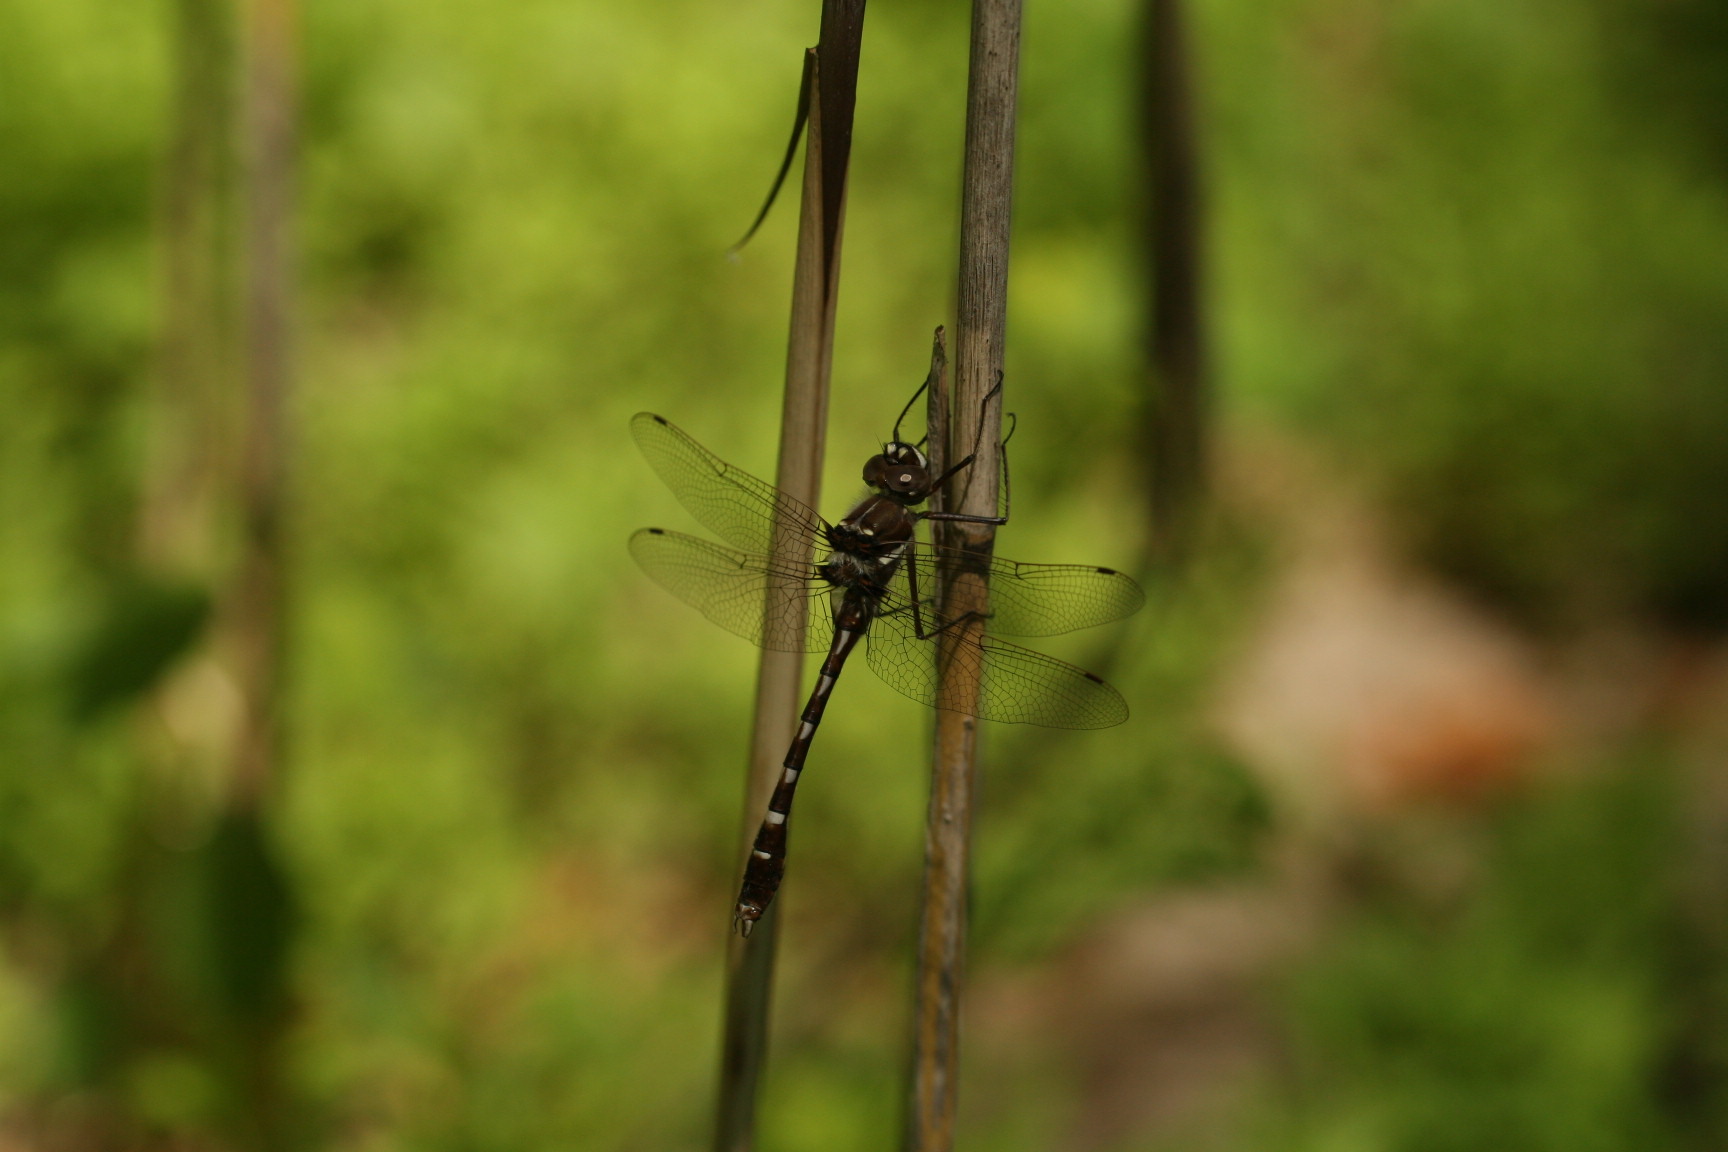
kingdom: Animalia
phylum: Arthropoda
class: Insecta
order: Odonata
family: Macromiidae
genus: Didymops
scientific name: Didymops transversa
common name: Stream cruiser
